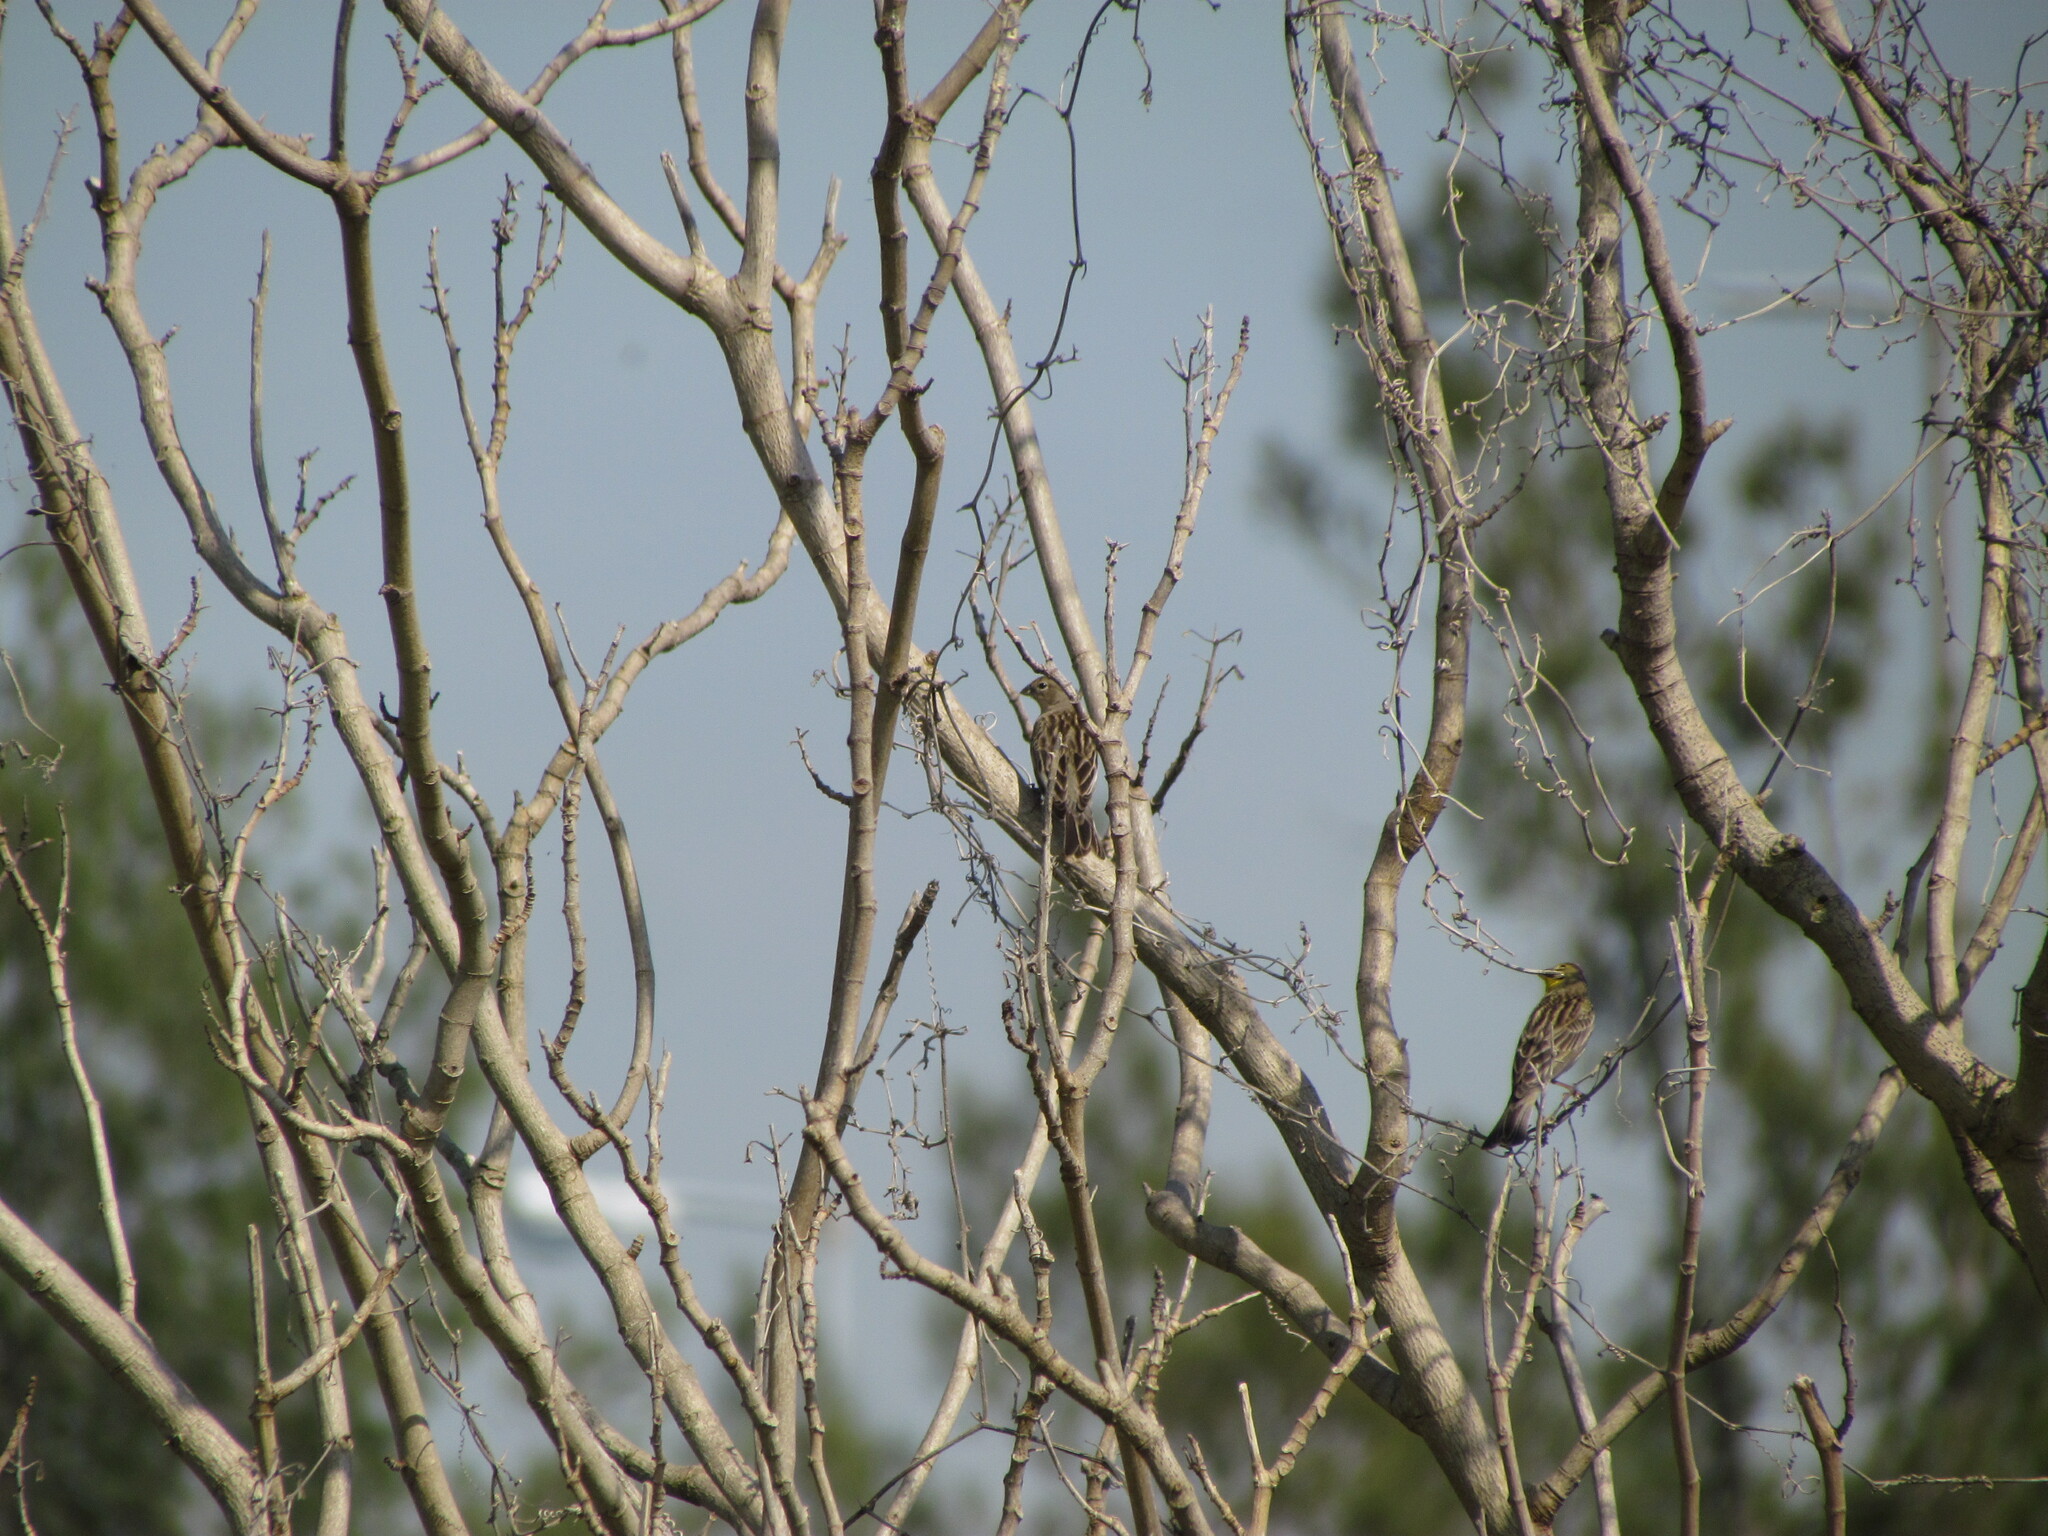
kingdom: Animalia
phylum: Chordata
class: Aves
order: Passeriformes
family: Thraupidae
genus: Sicalis
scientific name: Sicalis luteola
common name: Grassland yellow-finch
